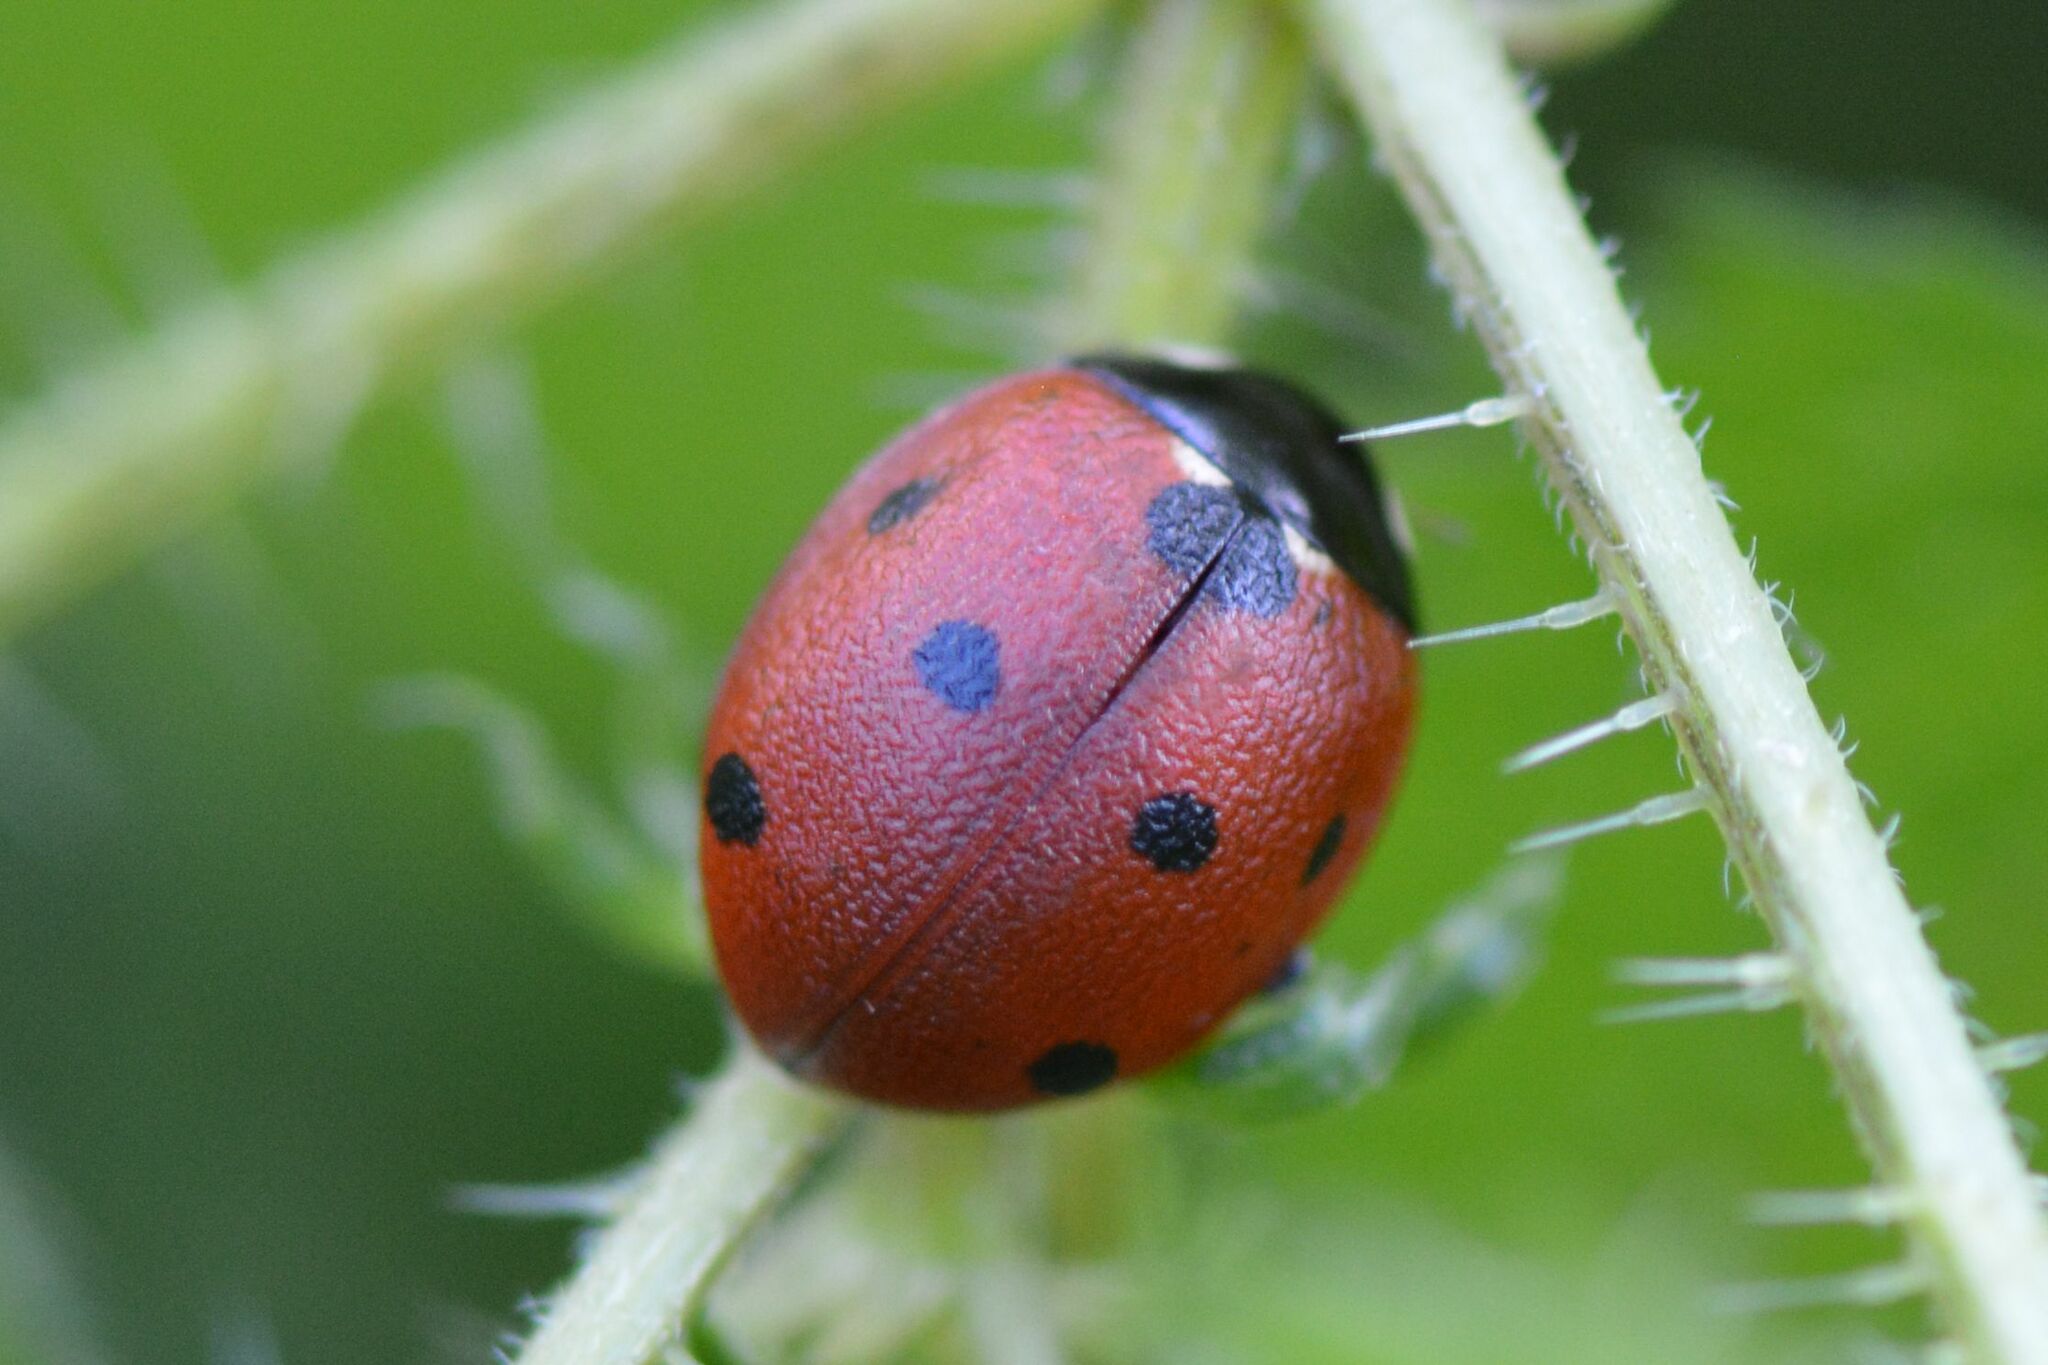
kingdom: Animalia
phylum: Arthropoda
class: Insecta
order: Coleoptera
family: Coccinellidae
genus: Coccinella
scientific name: Coccinella septempunctata
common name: Sevenspotted lady beetle
